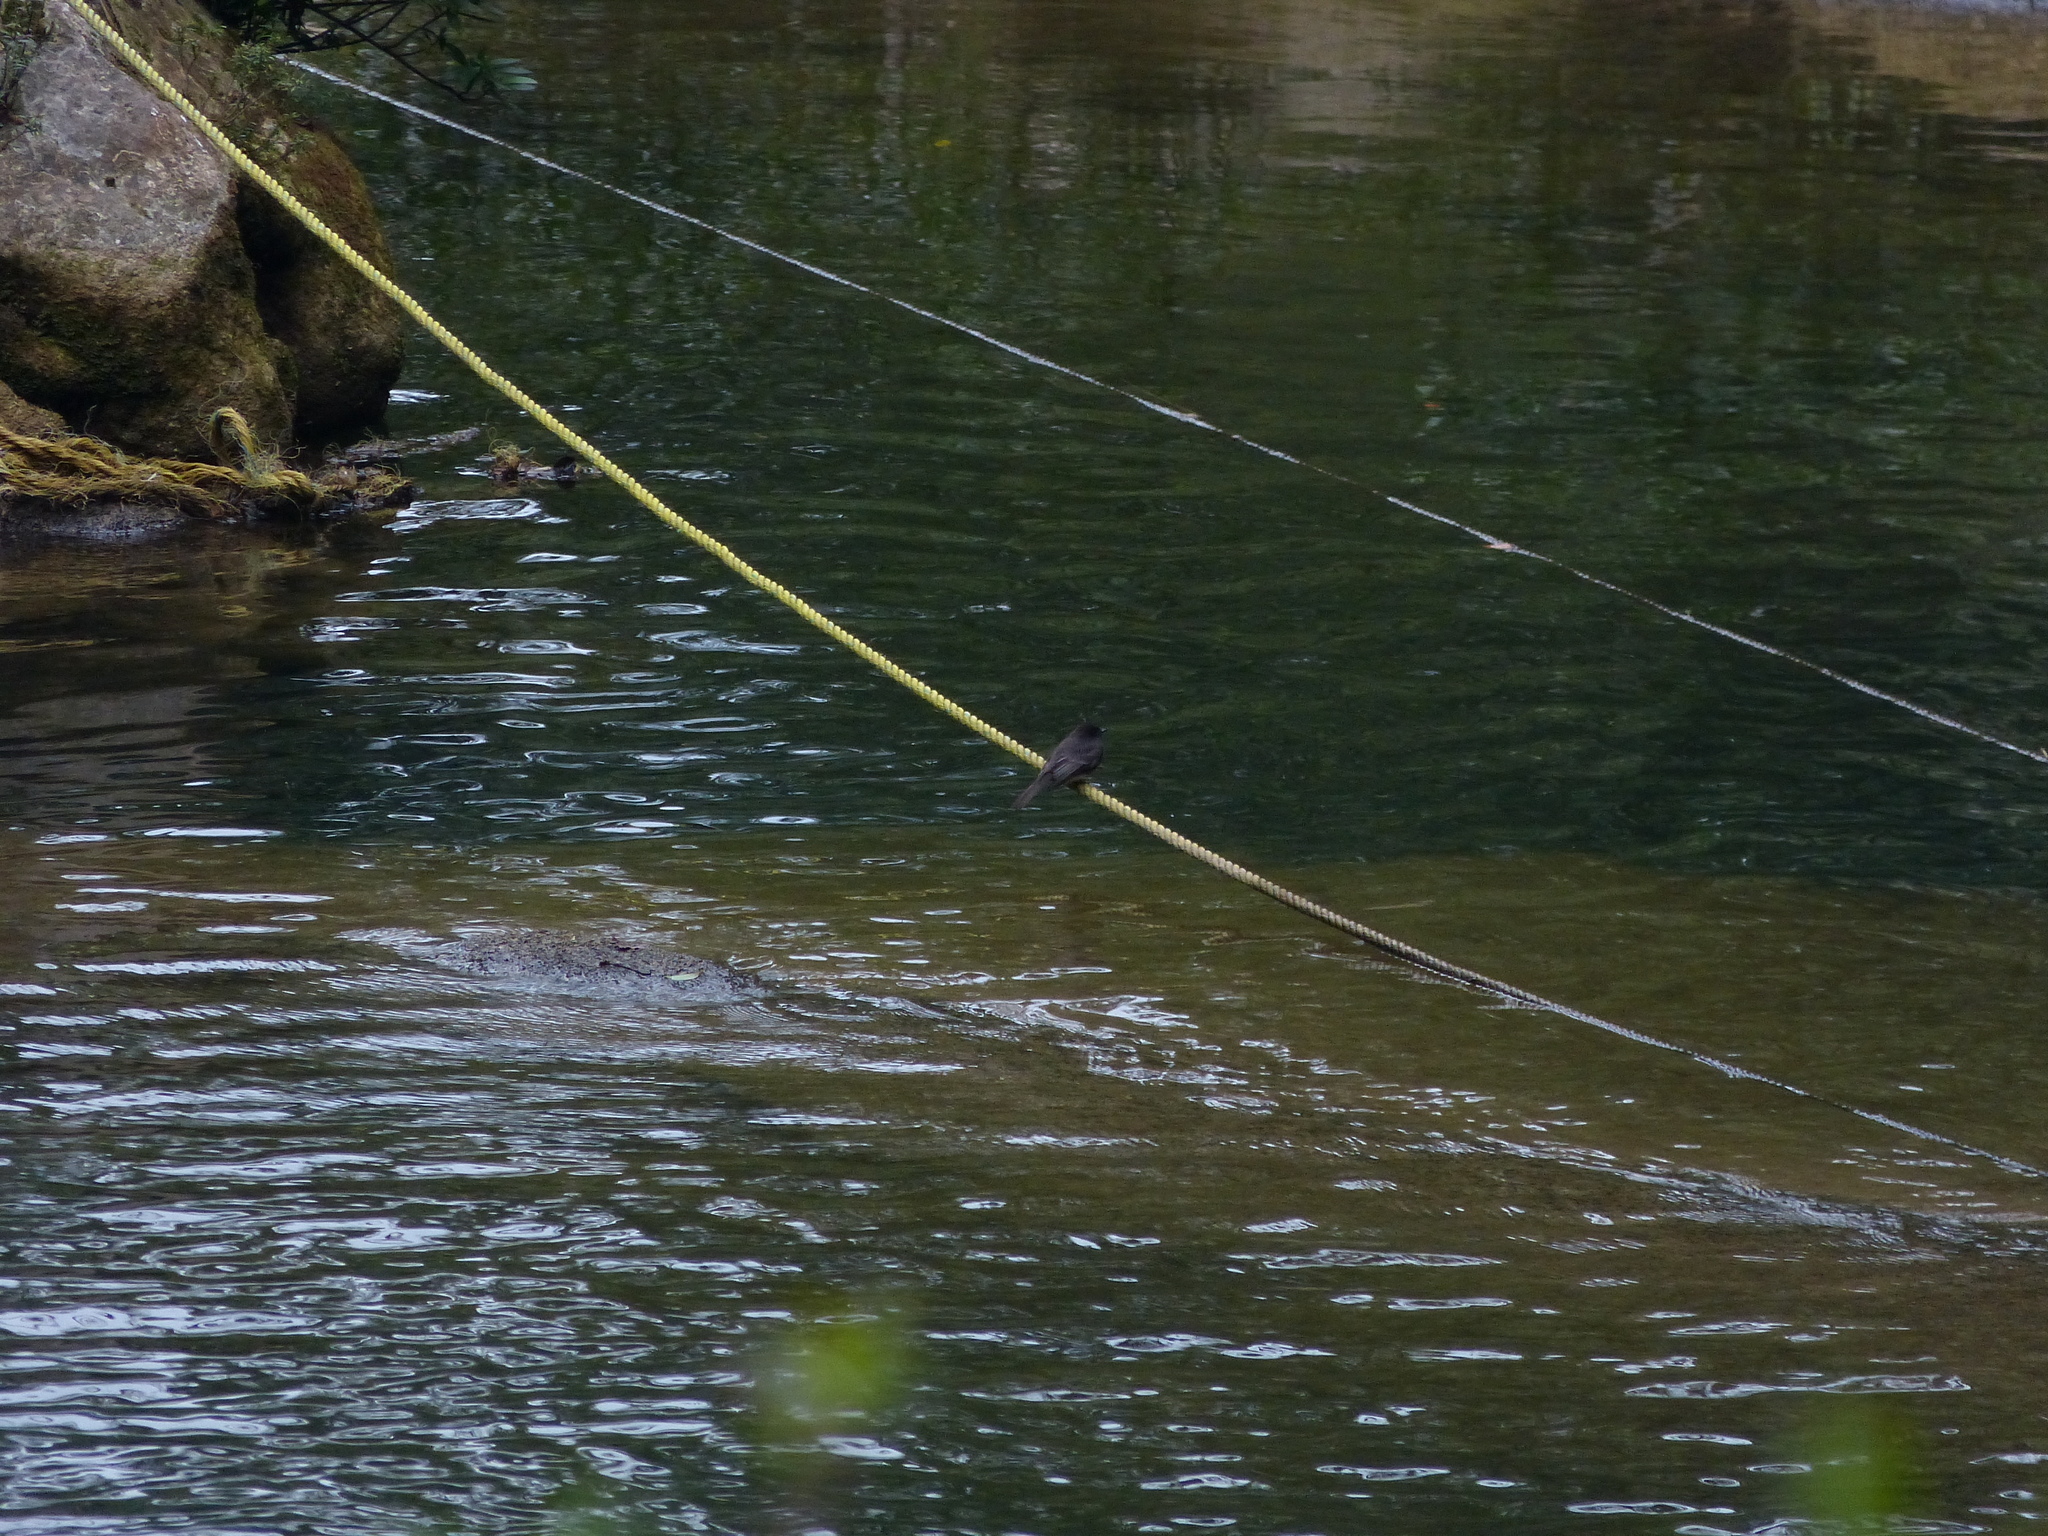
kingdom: Animalia
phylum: Chordata
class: Aves
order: Passeriformes
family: Tyrannidae
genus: Sayornis
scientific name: Sayornis nigricans
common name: Black phoebe
